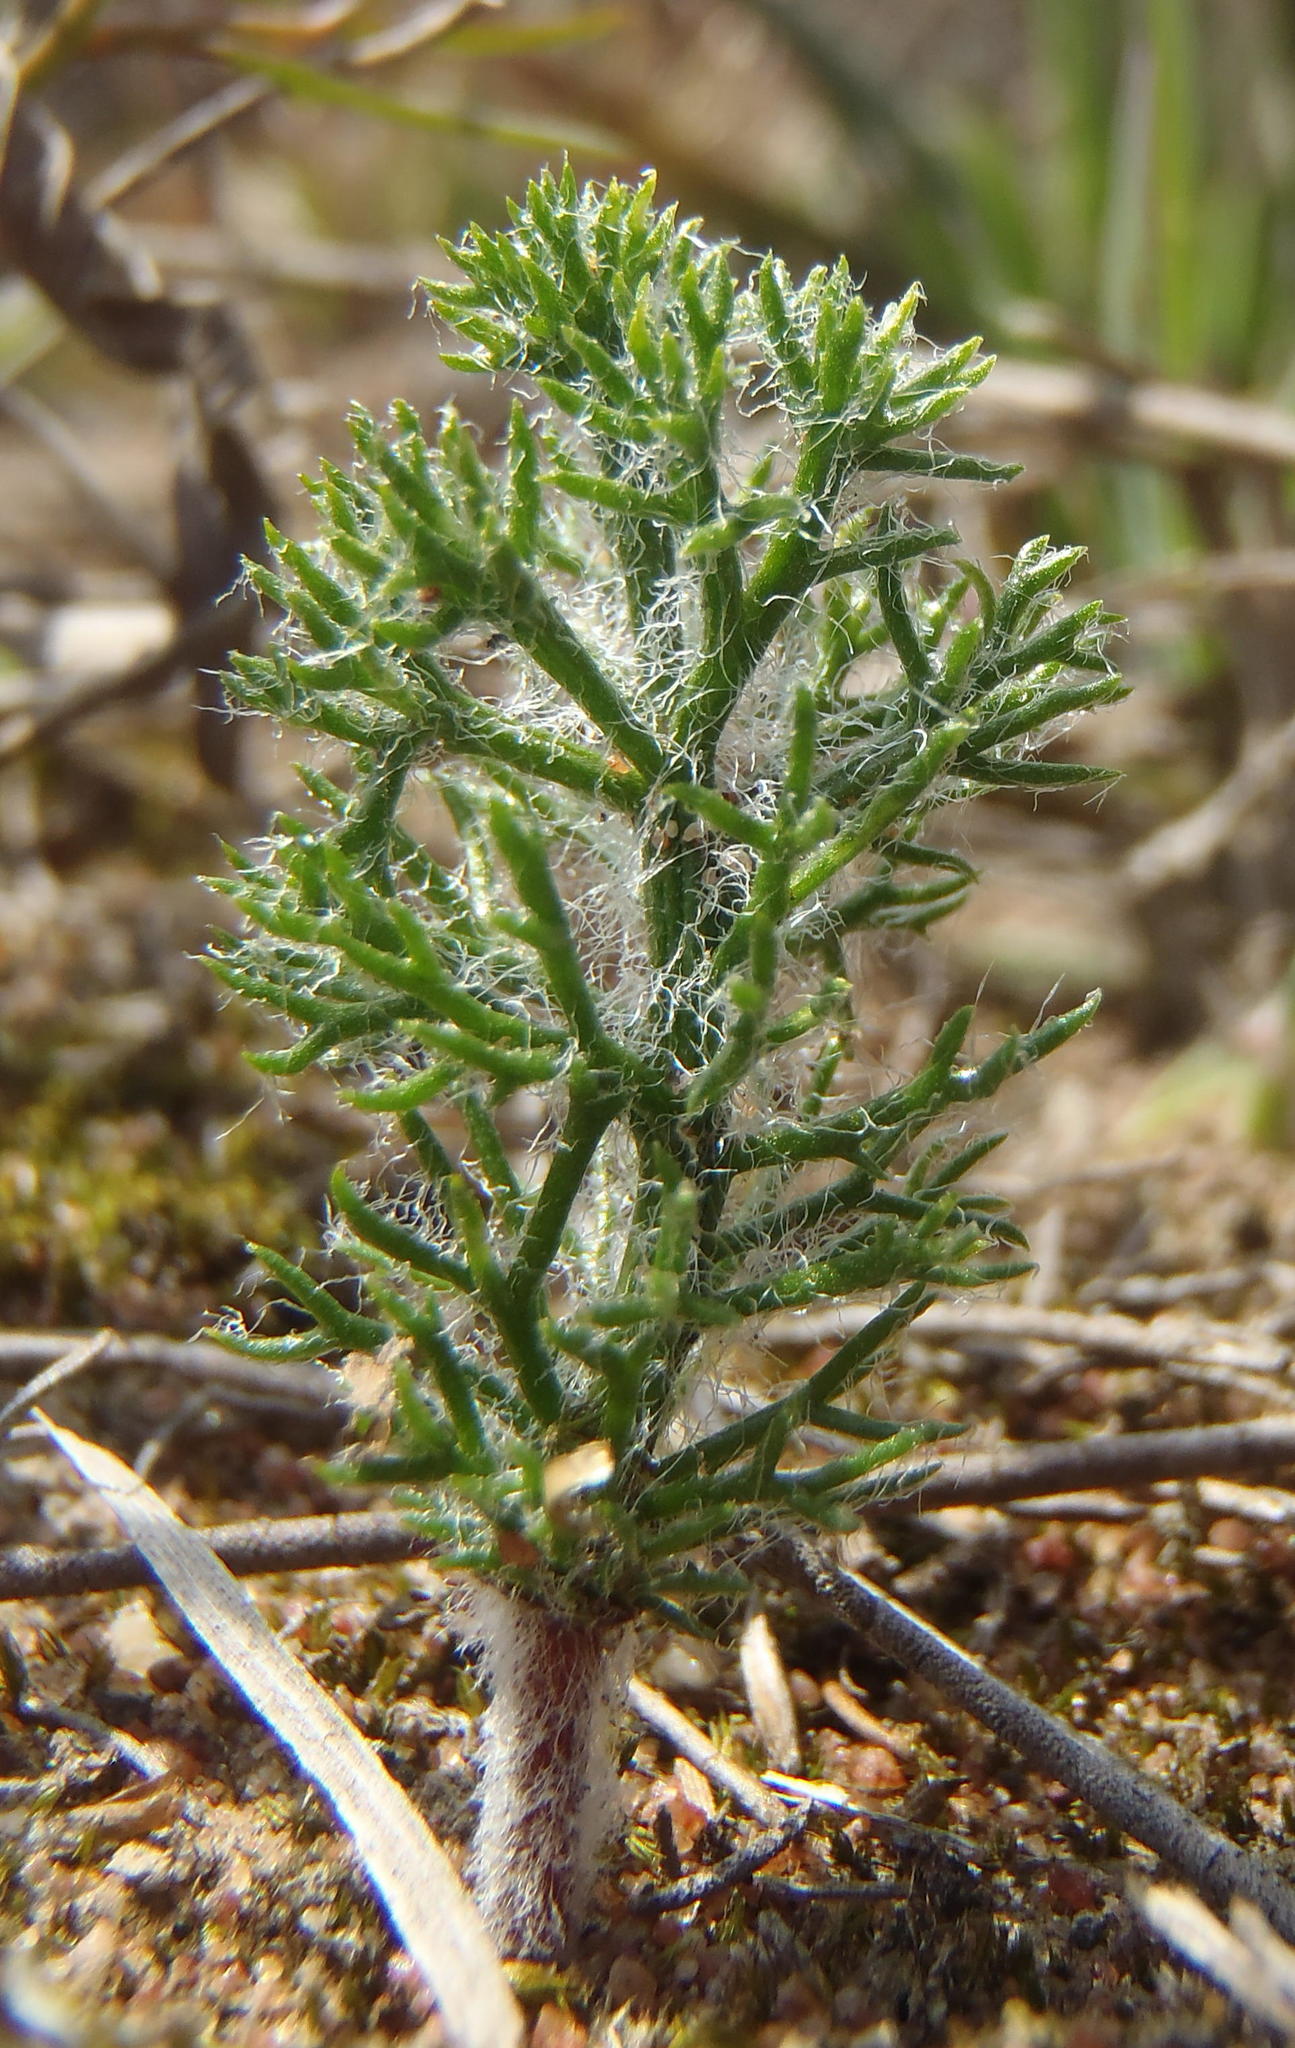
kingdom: Plantae
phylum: Tracheophyta
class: Liliopsida
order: Asparagales
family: Asparagaceae
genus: Eriospermum
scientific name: Eriospermum paradoxum
